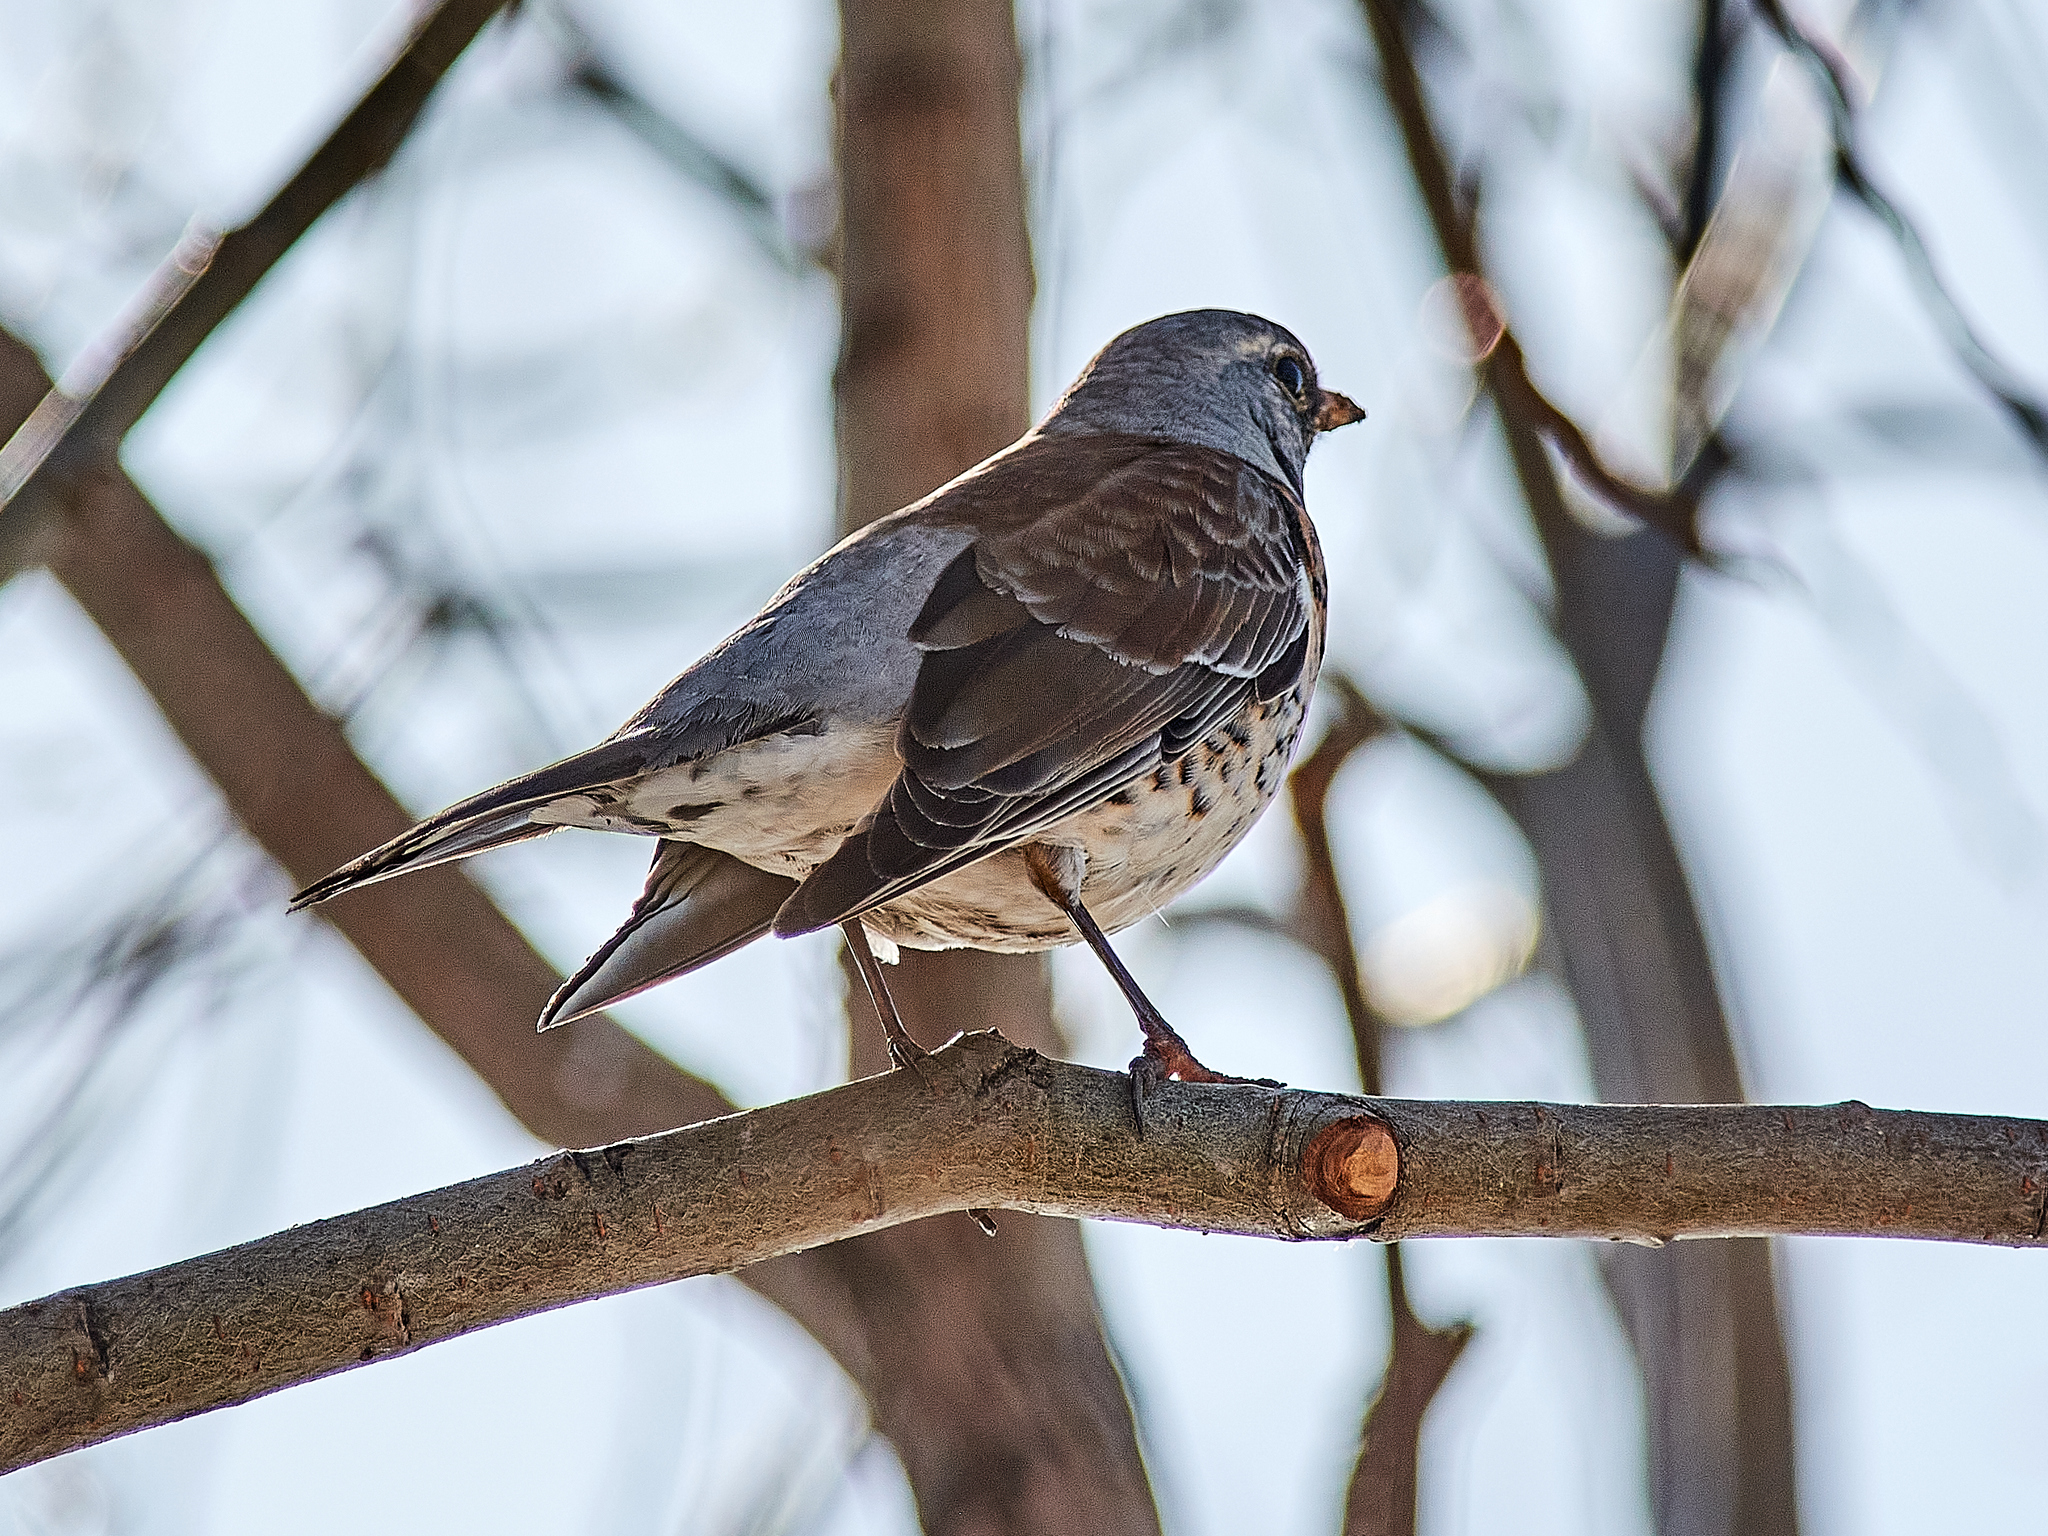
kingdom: Animalia
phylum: Chordata
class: Aves
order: Passeriformes
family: Turdidae
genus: Turdus
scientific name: Turdus pilaris
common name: Fieldfare
